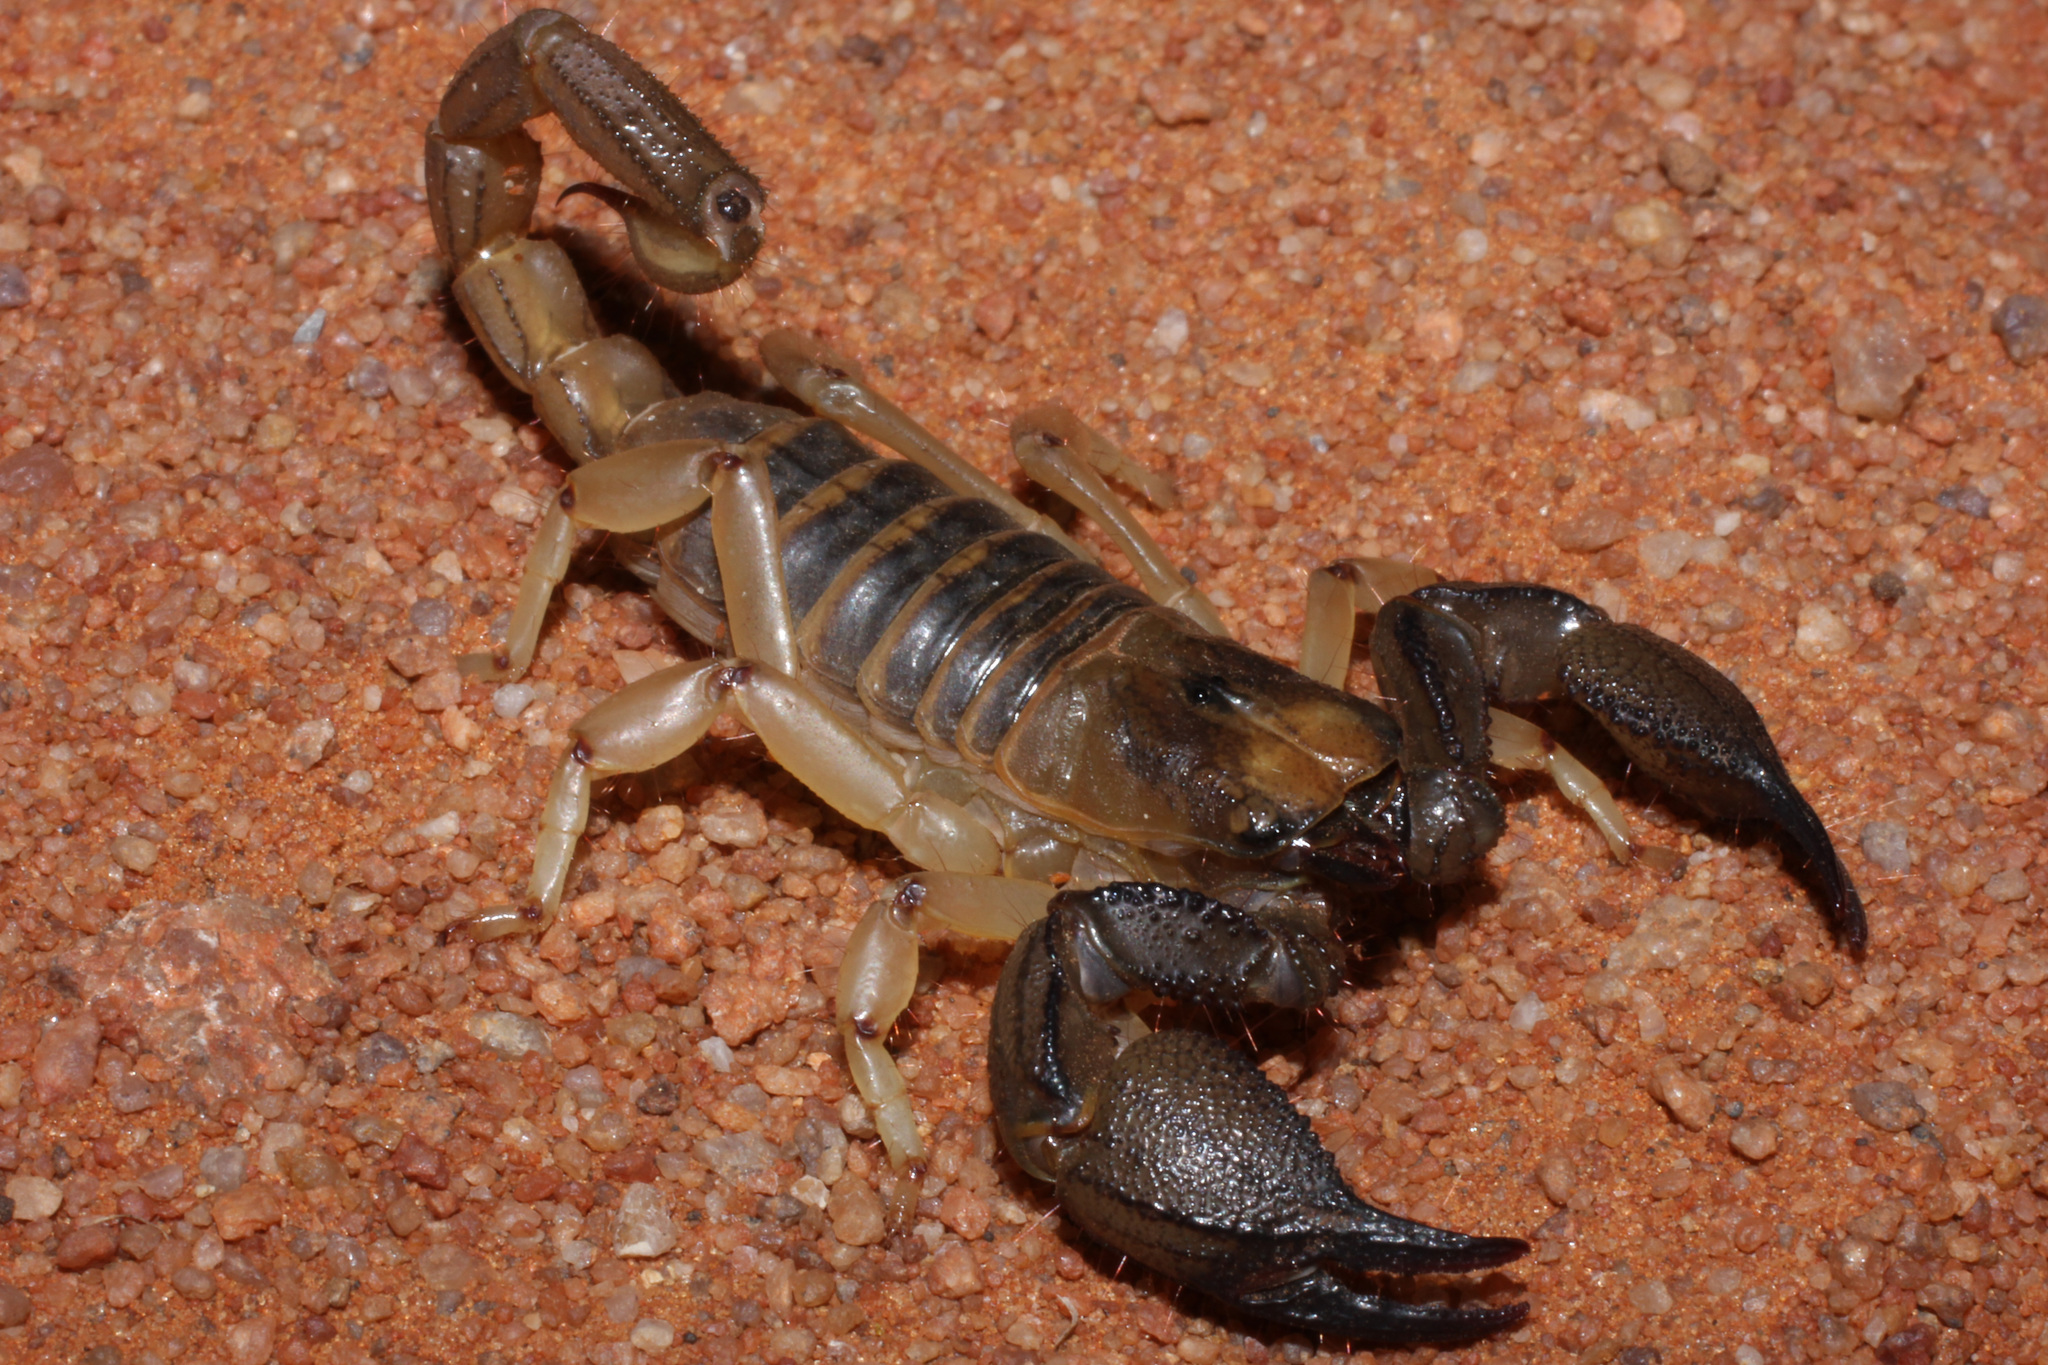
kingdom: Animalia
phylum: Arthropoda
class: Arachnida
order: Scorpiones
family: Scorpionidae
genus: Opistophthalmus
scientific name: Opistophthalmus fitzsimonsi
